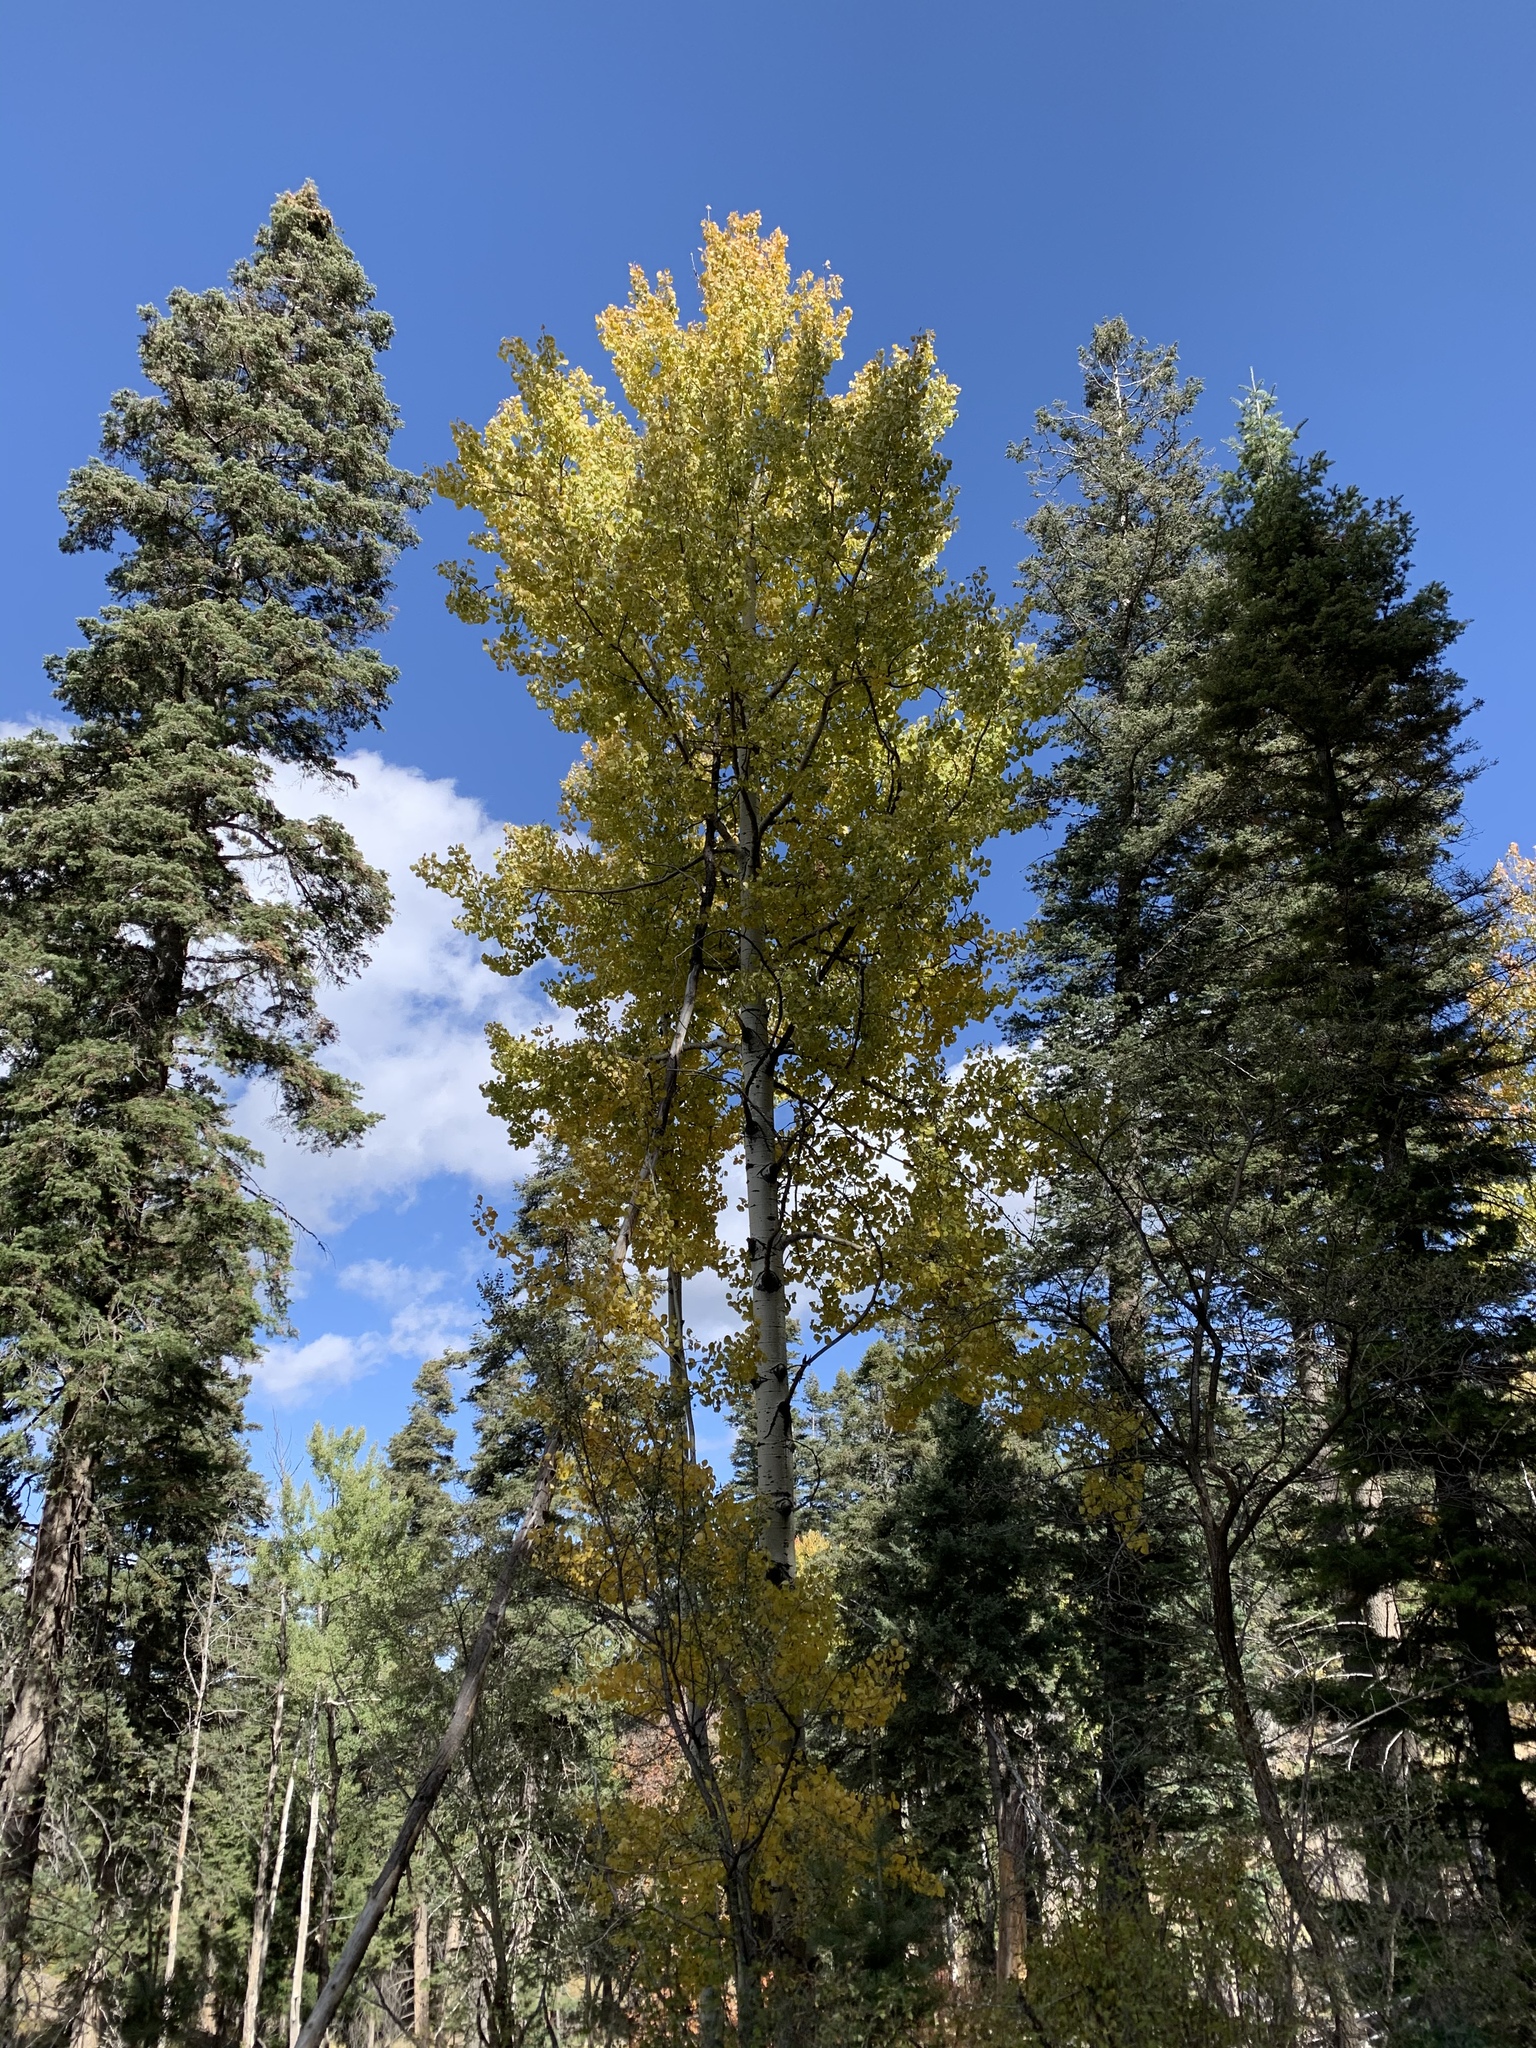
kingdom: Plantae
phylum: Tracheophyta
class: Magnoliopsida
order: Malpighiales
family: Salicaceae
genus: Populus
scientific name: Populus tremuloides
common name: Quaking aspen
